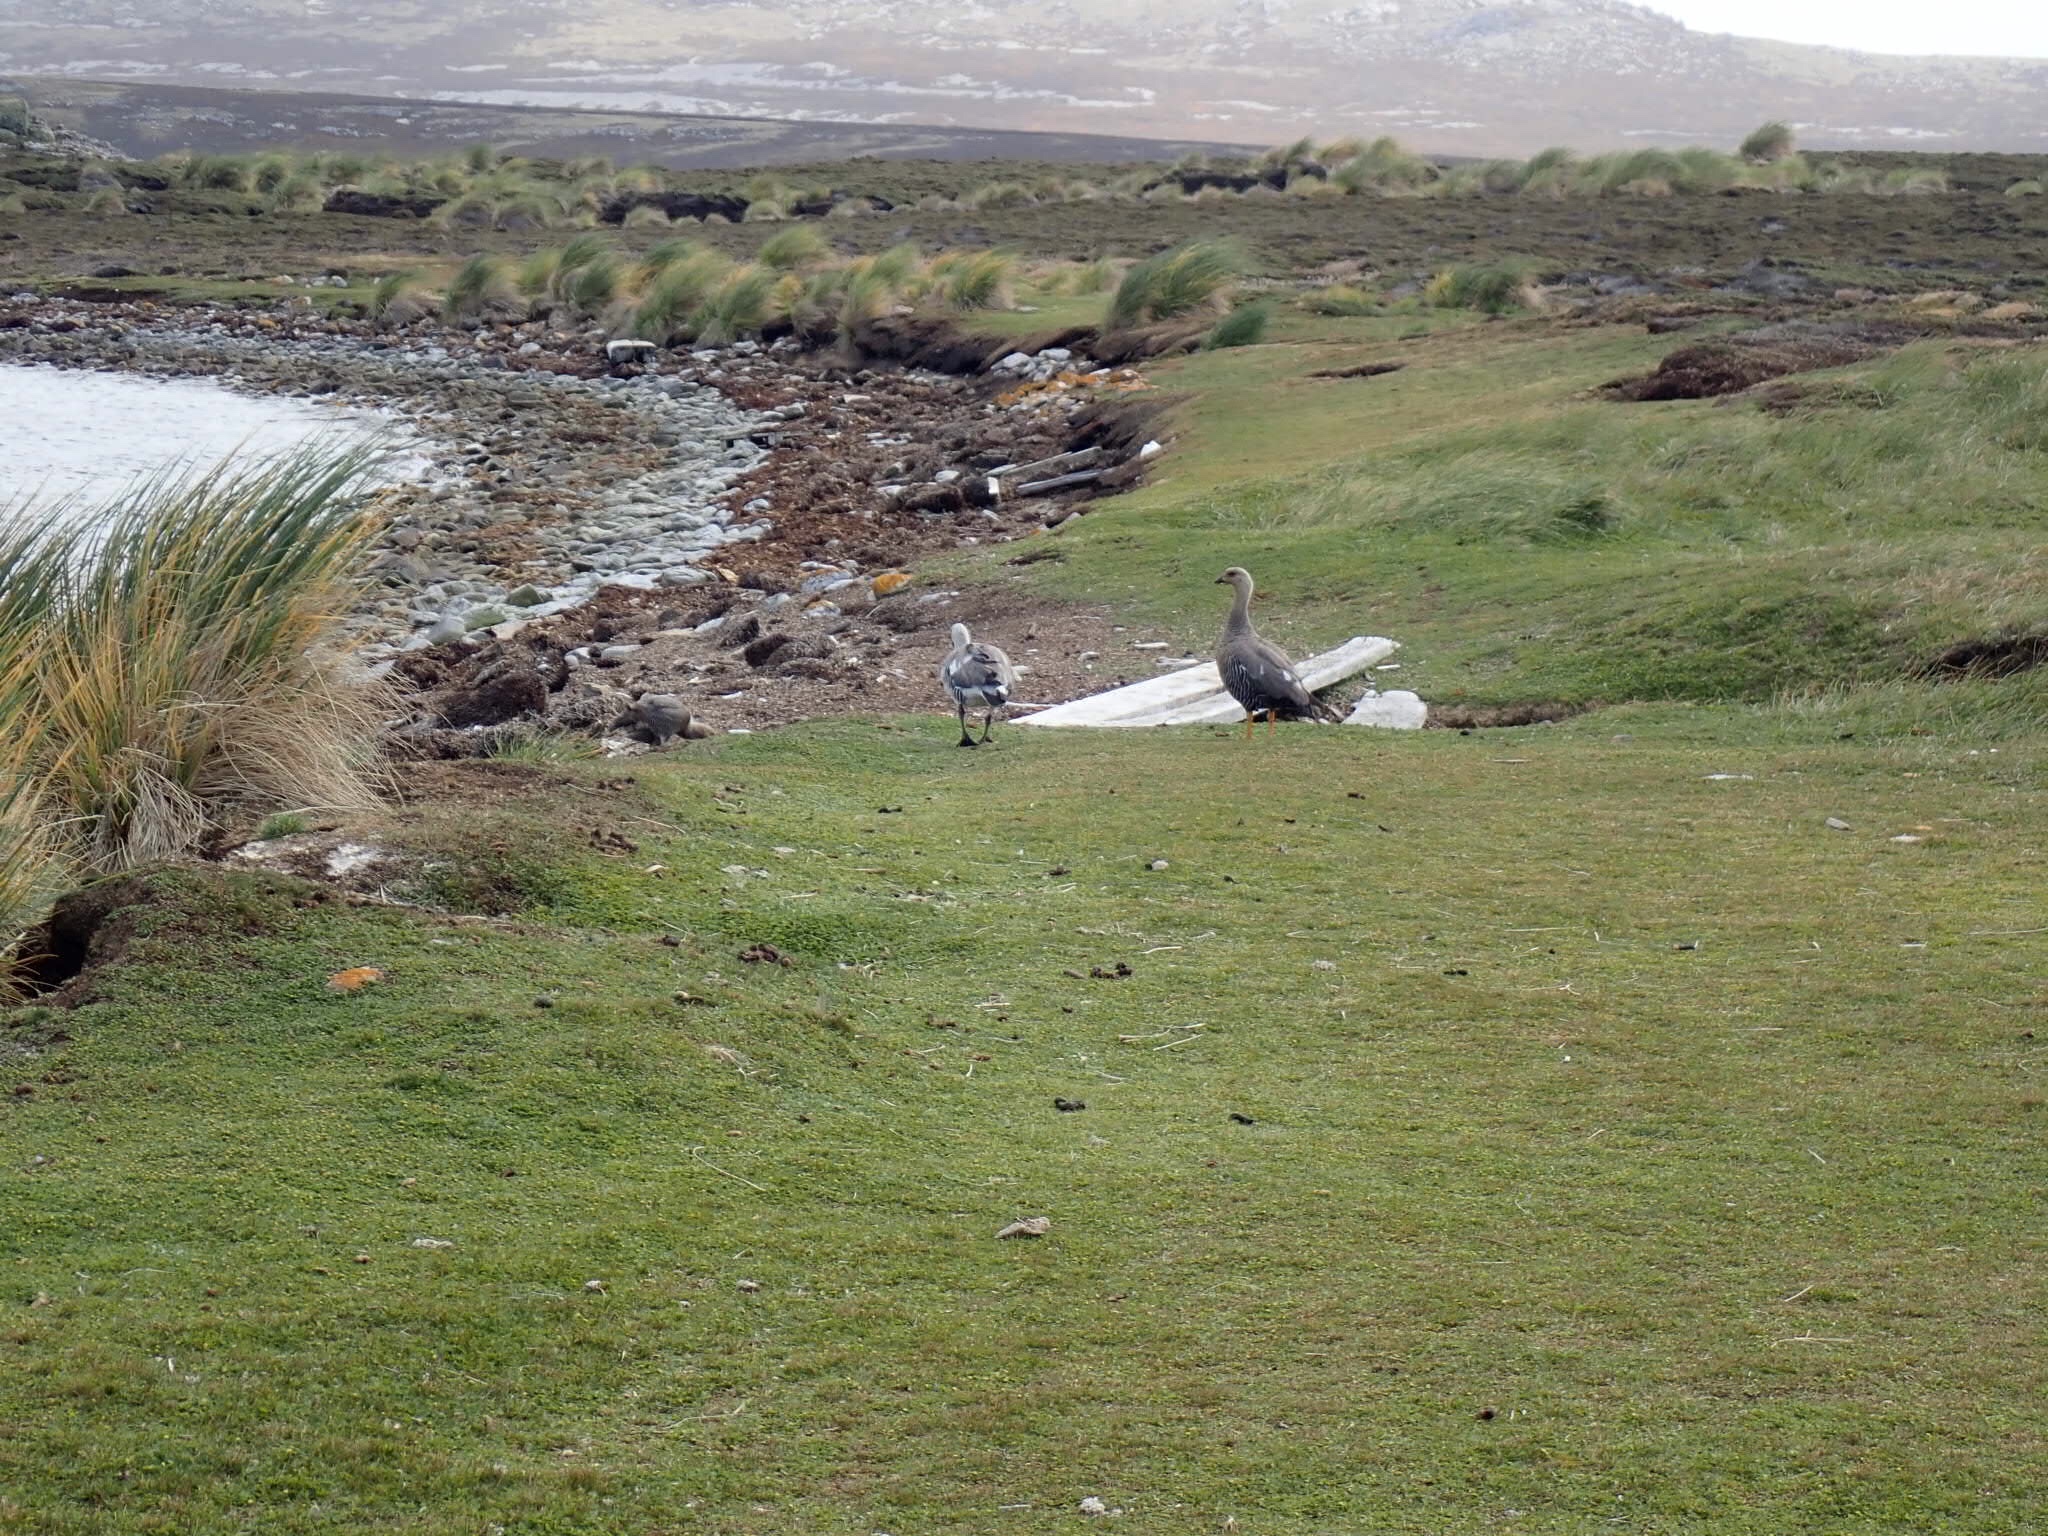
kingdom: Animalia
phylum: Chordata
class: Aves
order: Anseriformes
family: Anatidae
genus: Chloephaga
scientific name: Chloephaga picta
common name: Upland goose
